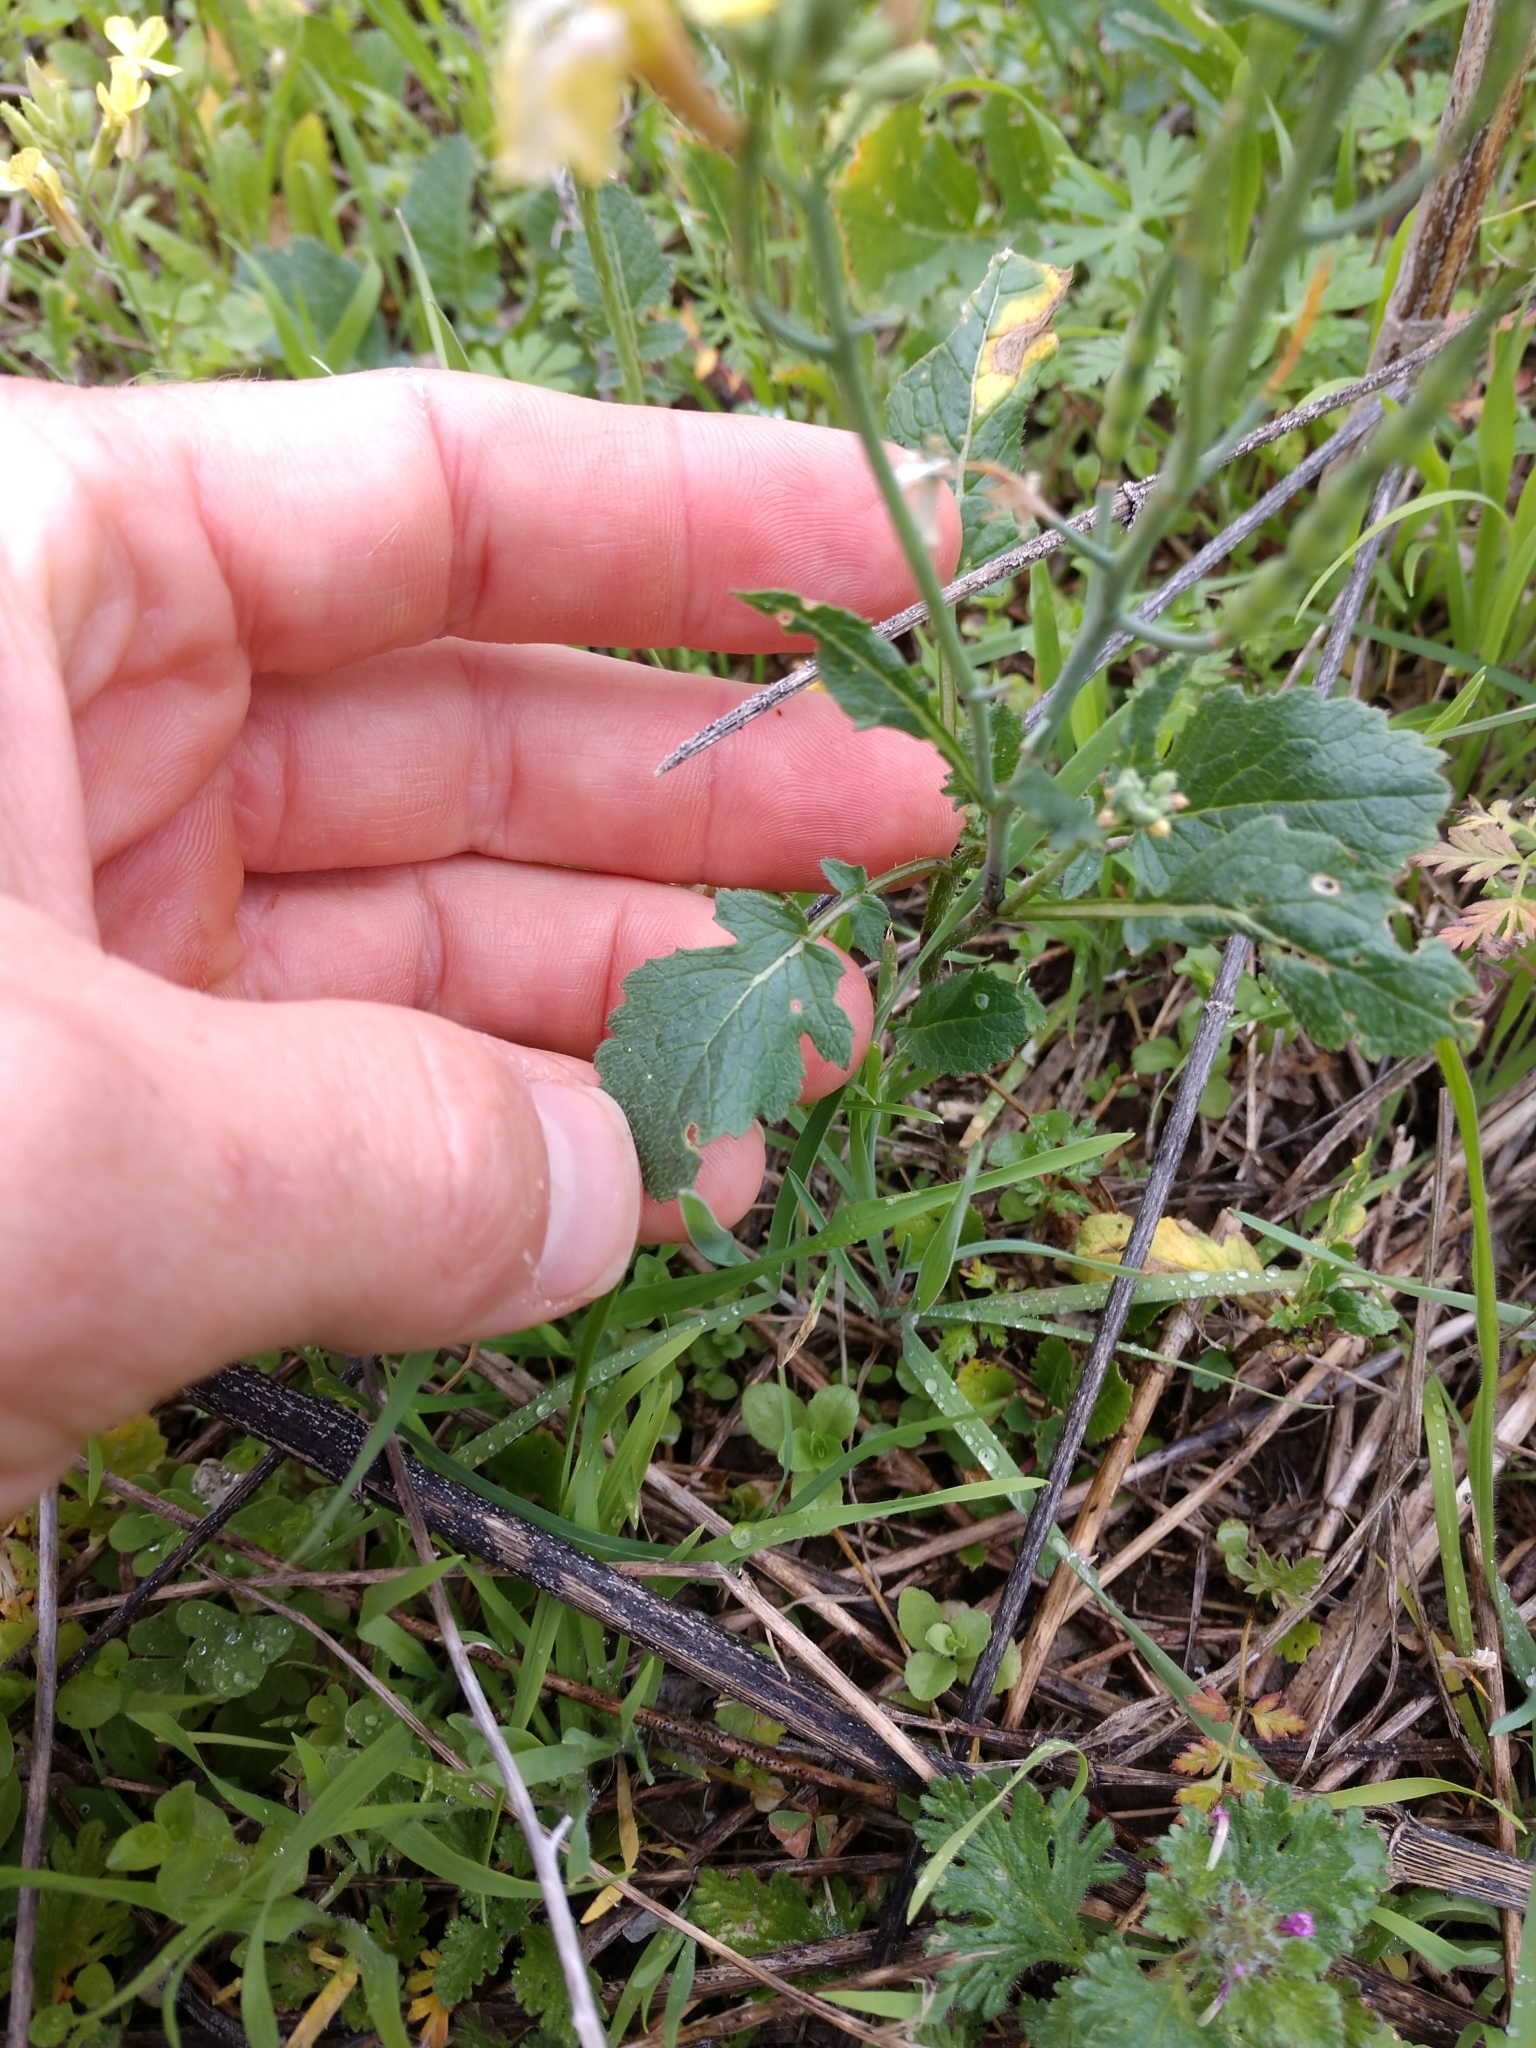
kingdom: Plantae
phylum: Tracheophyta
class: Magnoliopsida
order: Brassicales
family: Brassicaceae
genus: Raphanus
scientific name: Raphanus raphanistrum
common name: Wild radish
